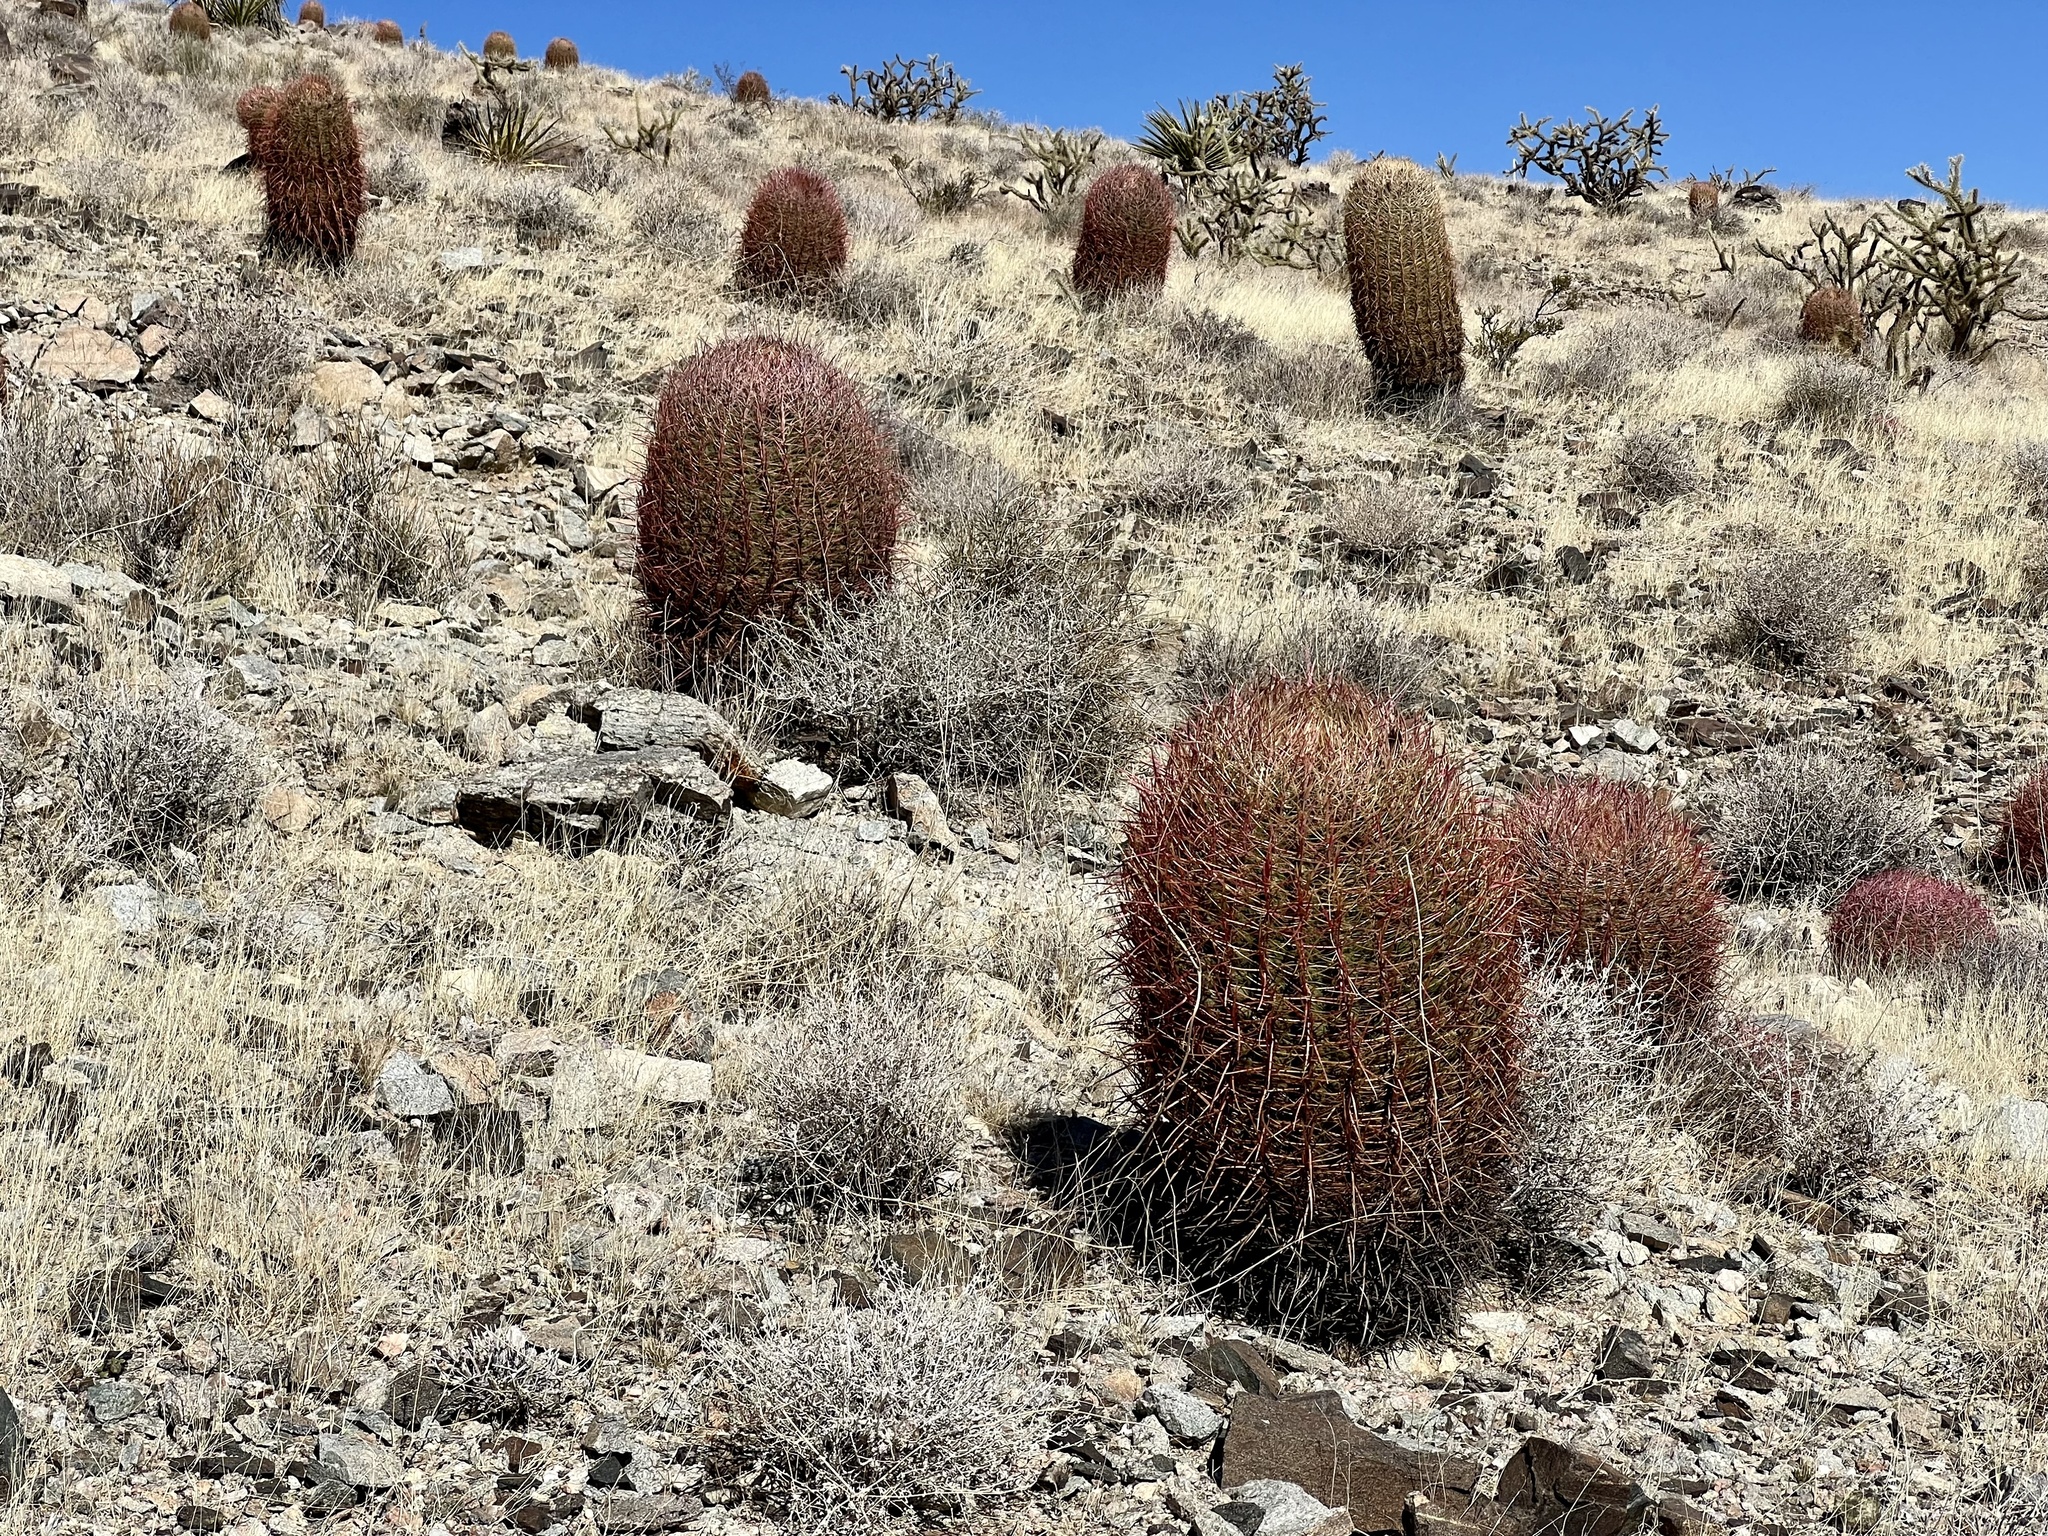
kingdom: Plantae
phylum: Tracheophyta
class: Magnoliopsida
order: Caryophyllales
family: Cactaceae
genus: Ferocactus
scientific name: Ferocactus cylindraceus
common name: California barrel cactus
